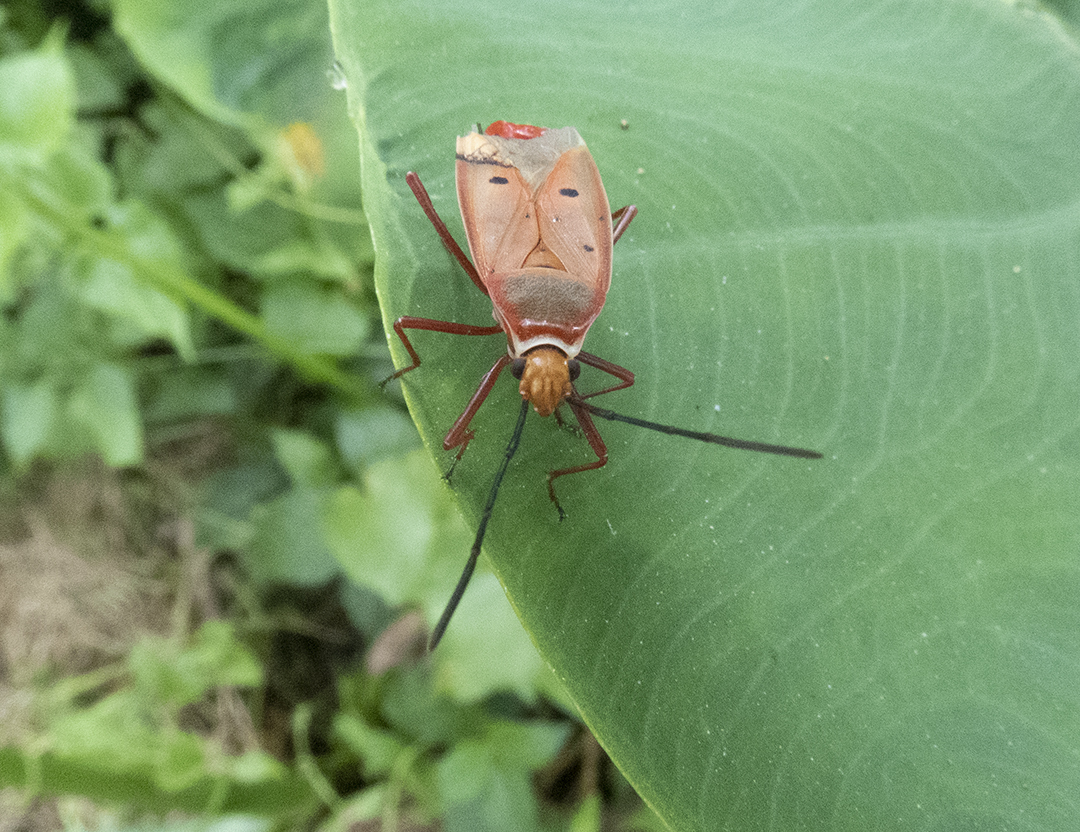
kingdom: Animalia
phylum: Arthropoda
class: Insecta
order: Hemiptera
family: Pyrrhocoridae
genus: Dysdercus
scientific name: Dysdercus evanescens
